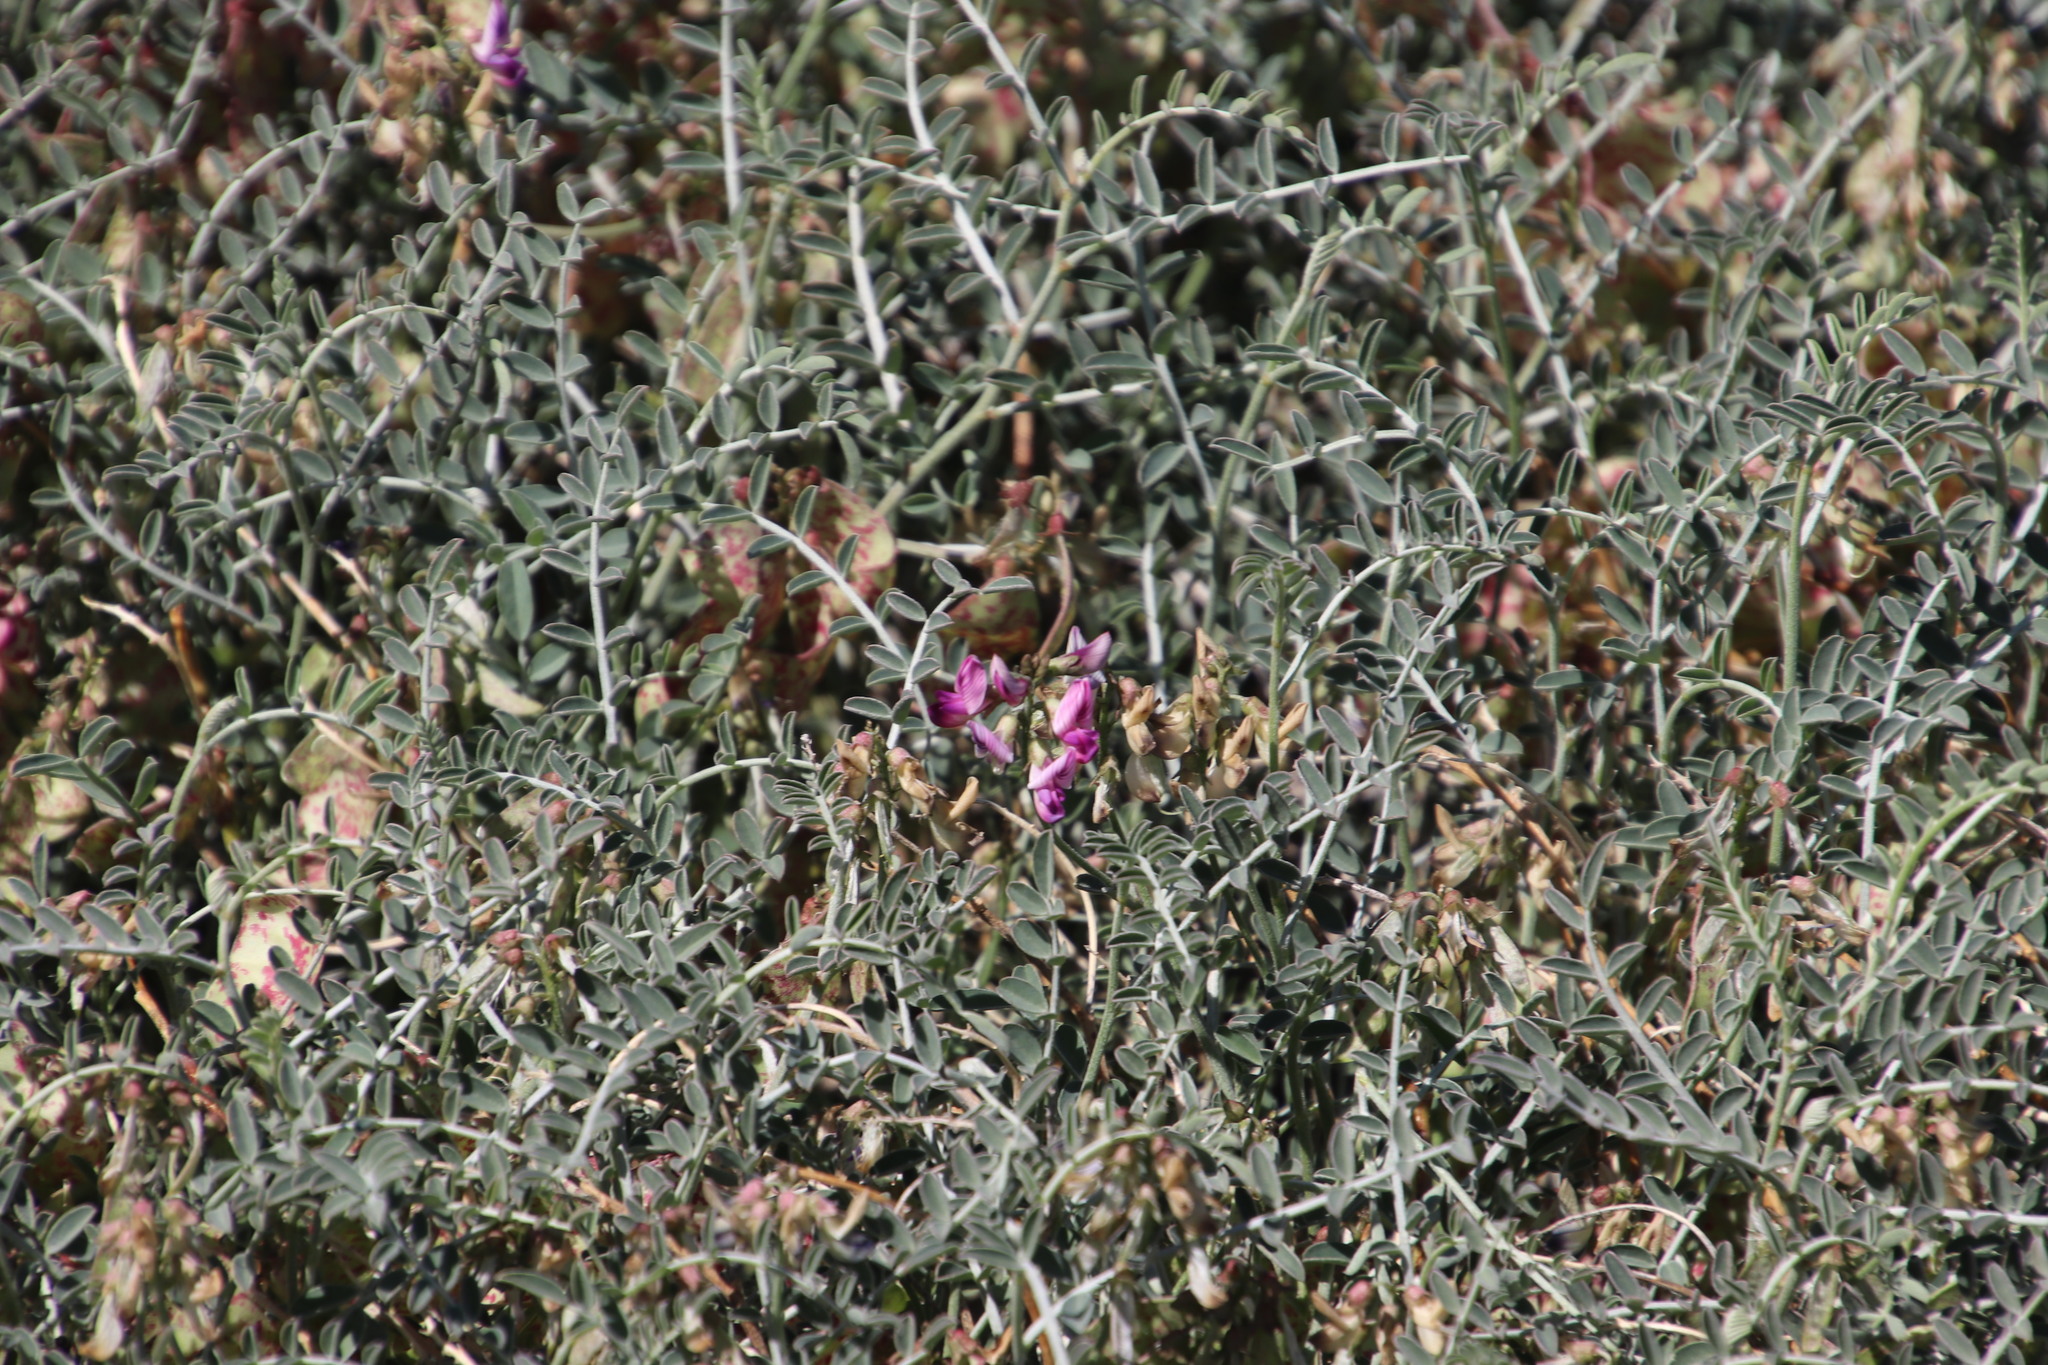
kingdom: Plantae
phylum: Tracheophyta
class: Magnoliopsida
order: Fabales
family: Fabaceae
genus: Lessertia
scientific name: Lessertia frutescens
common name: Balloon-pea
